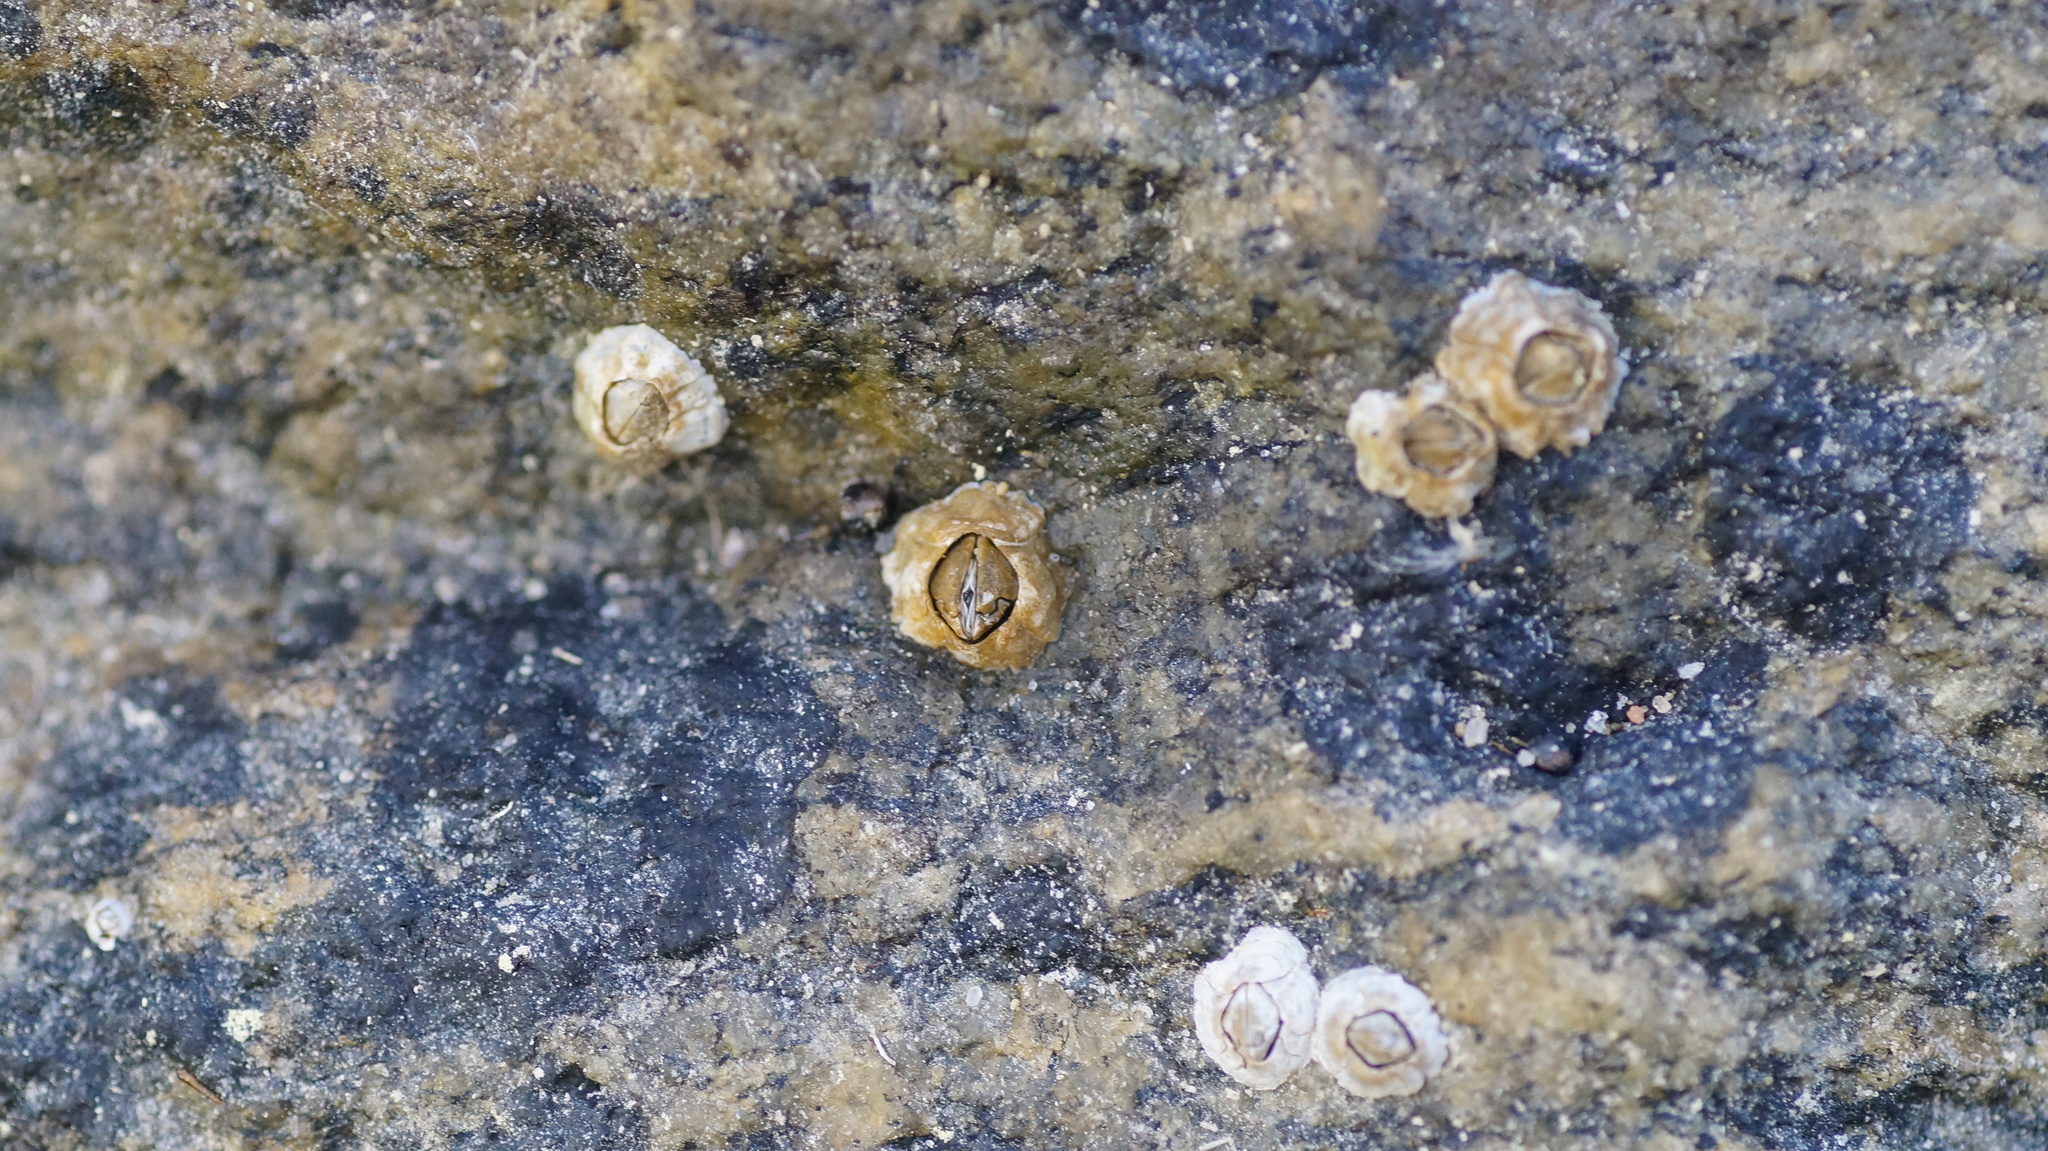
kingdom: Animalia
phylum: Arthropoda
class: Maxillopoda
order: Sessilia
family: Archaeobalanidae
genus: Semibalanus
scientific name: Semibalanus balanoides
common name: Acorn barnacle
